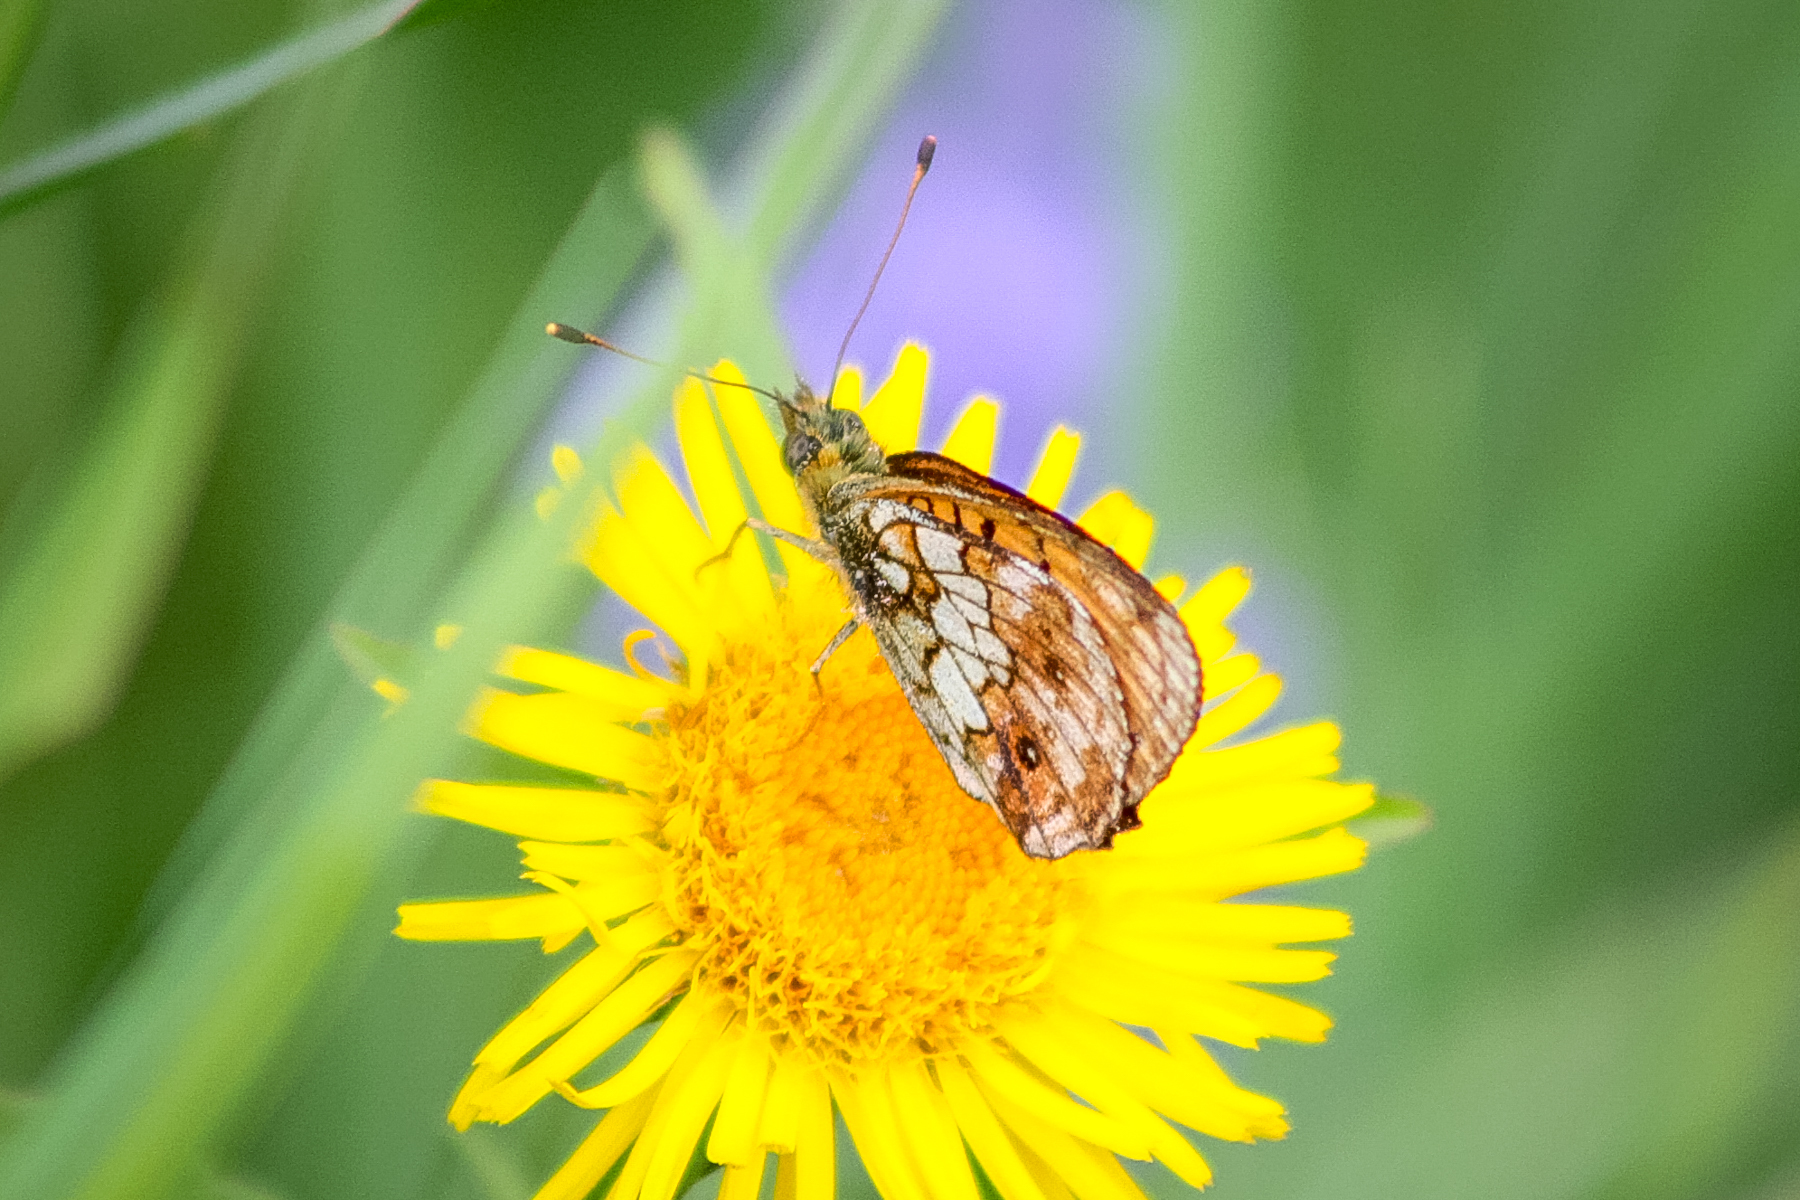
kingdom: Animalia
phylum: Arthropoda
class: Insecta
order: Lepidoptera
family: Nymphalidae
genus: Brenthis
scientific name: Brenthis ino
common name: Lesser marbled fritillary
